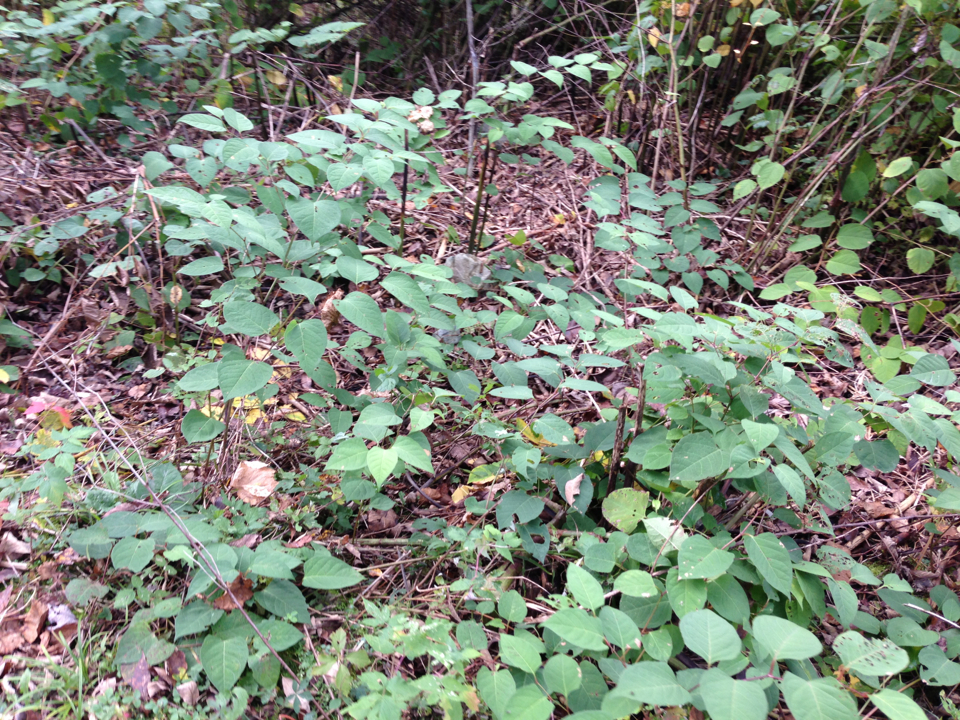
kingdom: Plantae
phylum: Tracheophyta
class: Magnoliopsida
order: Caryophyllales
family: Polygonaceae
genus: Reynoutria
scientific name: Reynoutria japonica
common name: Japanese knotweed
